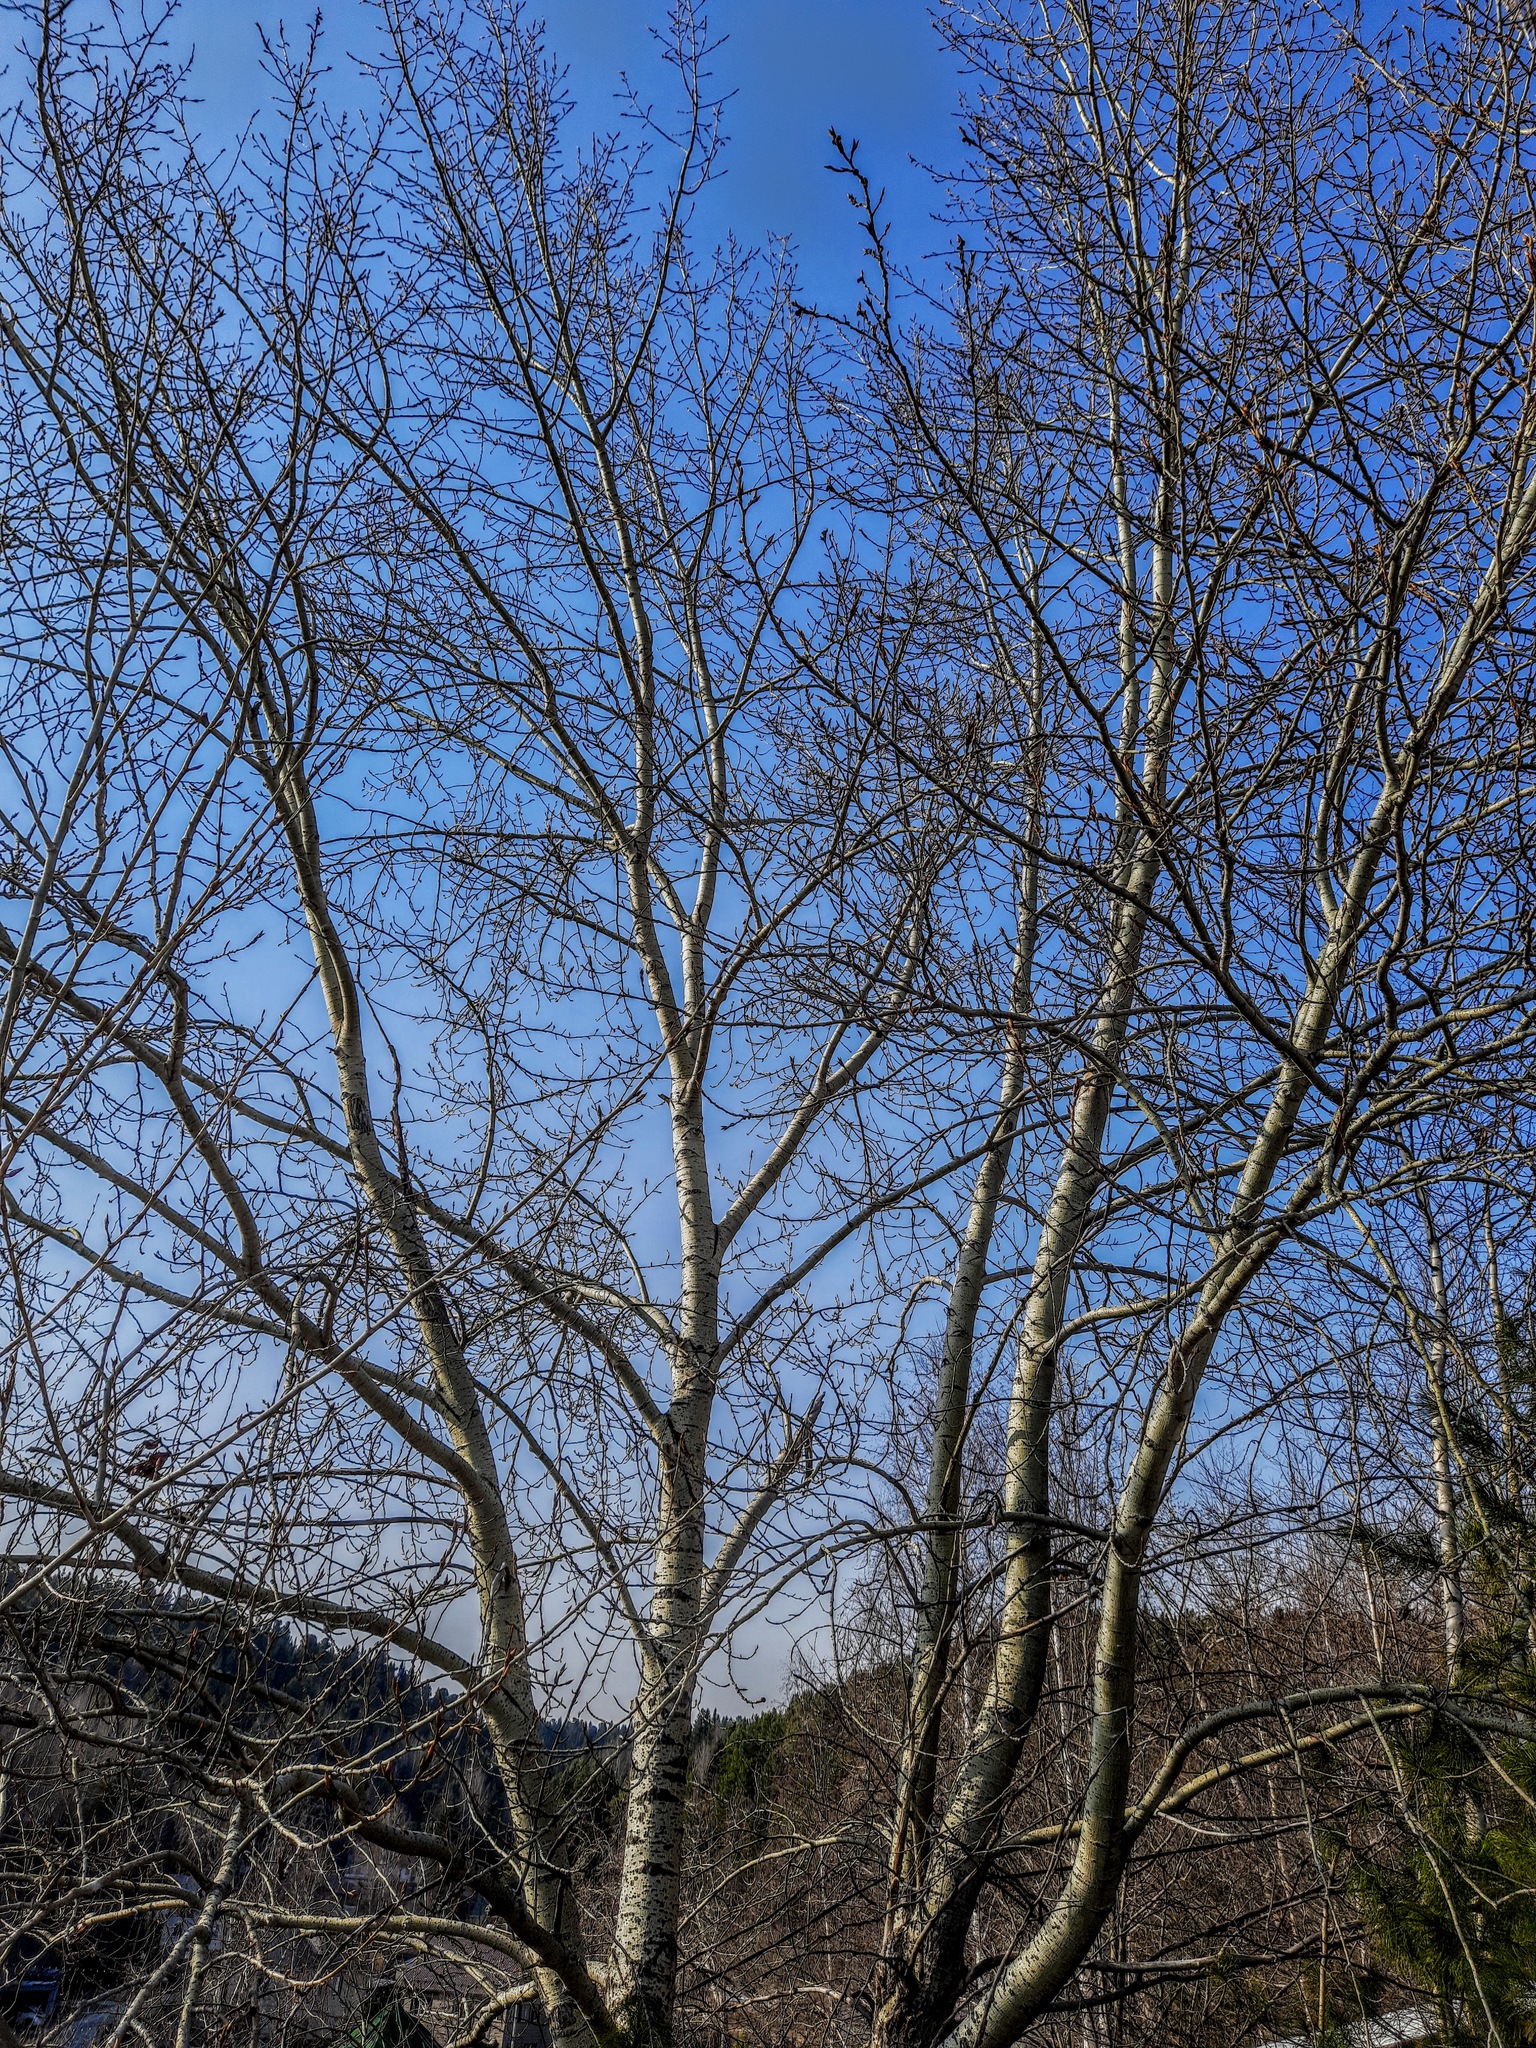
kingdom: Plantae
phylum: Tracheophyta
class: Magnoliopsida
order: Malpighiales
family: Salicaceae
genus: Populus
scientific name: Populus sibirica
